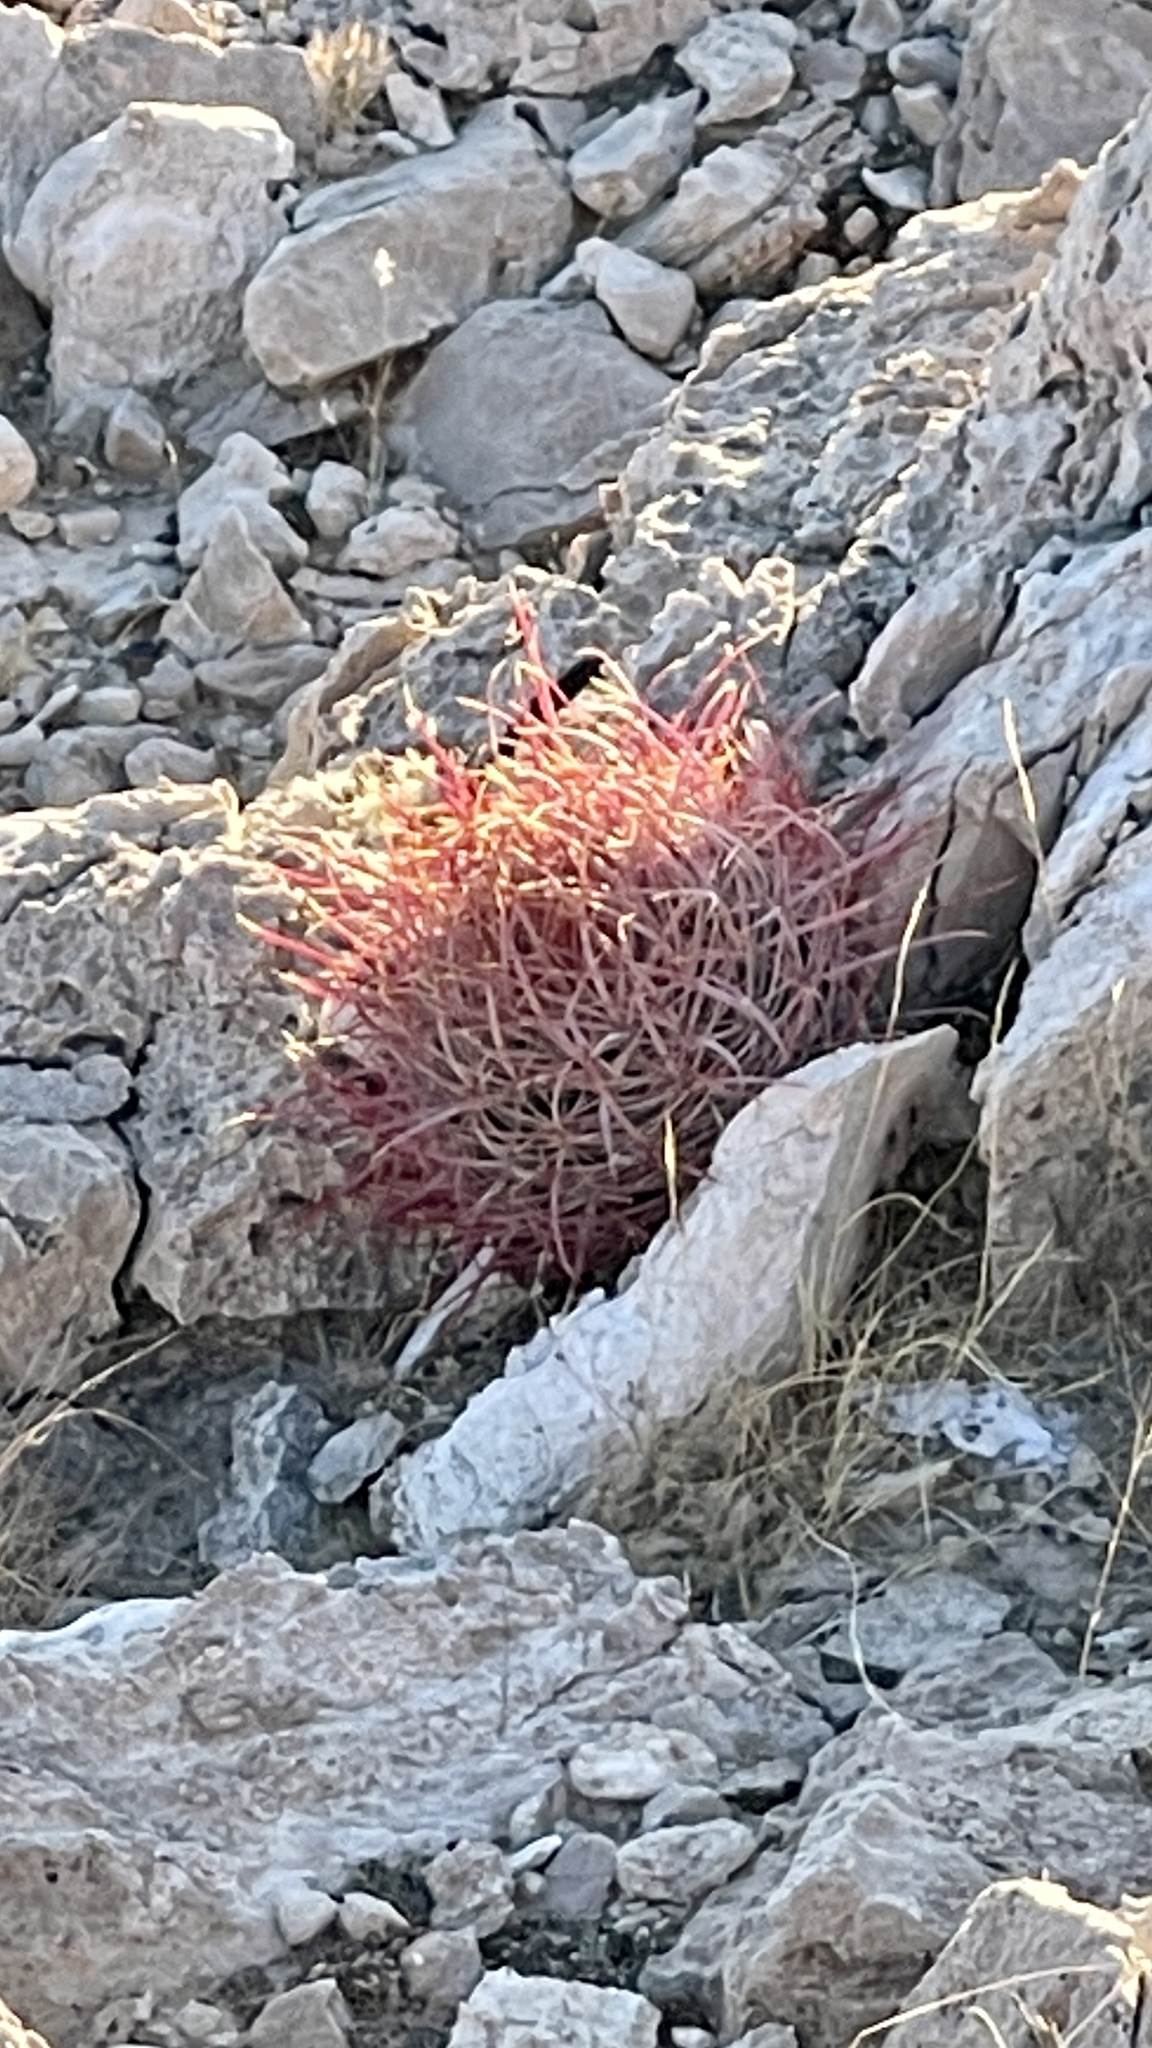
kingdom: Plantae
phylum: Tracheophyta
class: Magnoliopsida
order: Caryophyllales
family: Cactaceae
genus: Ferocactus
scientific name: Ferocactus cylindraceus
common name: California barrel cactus
